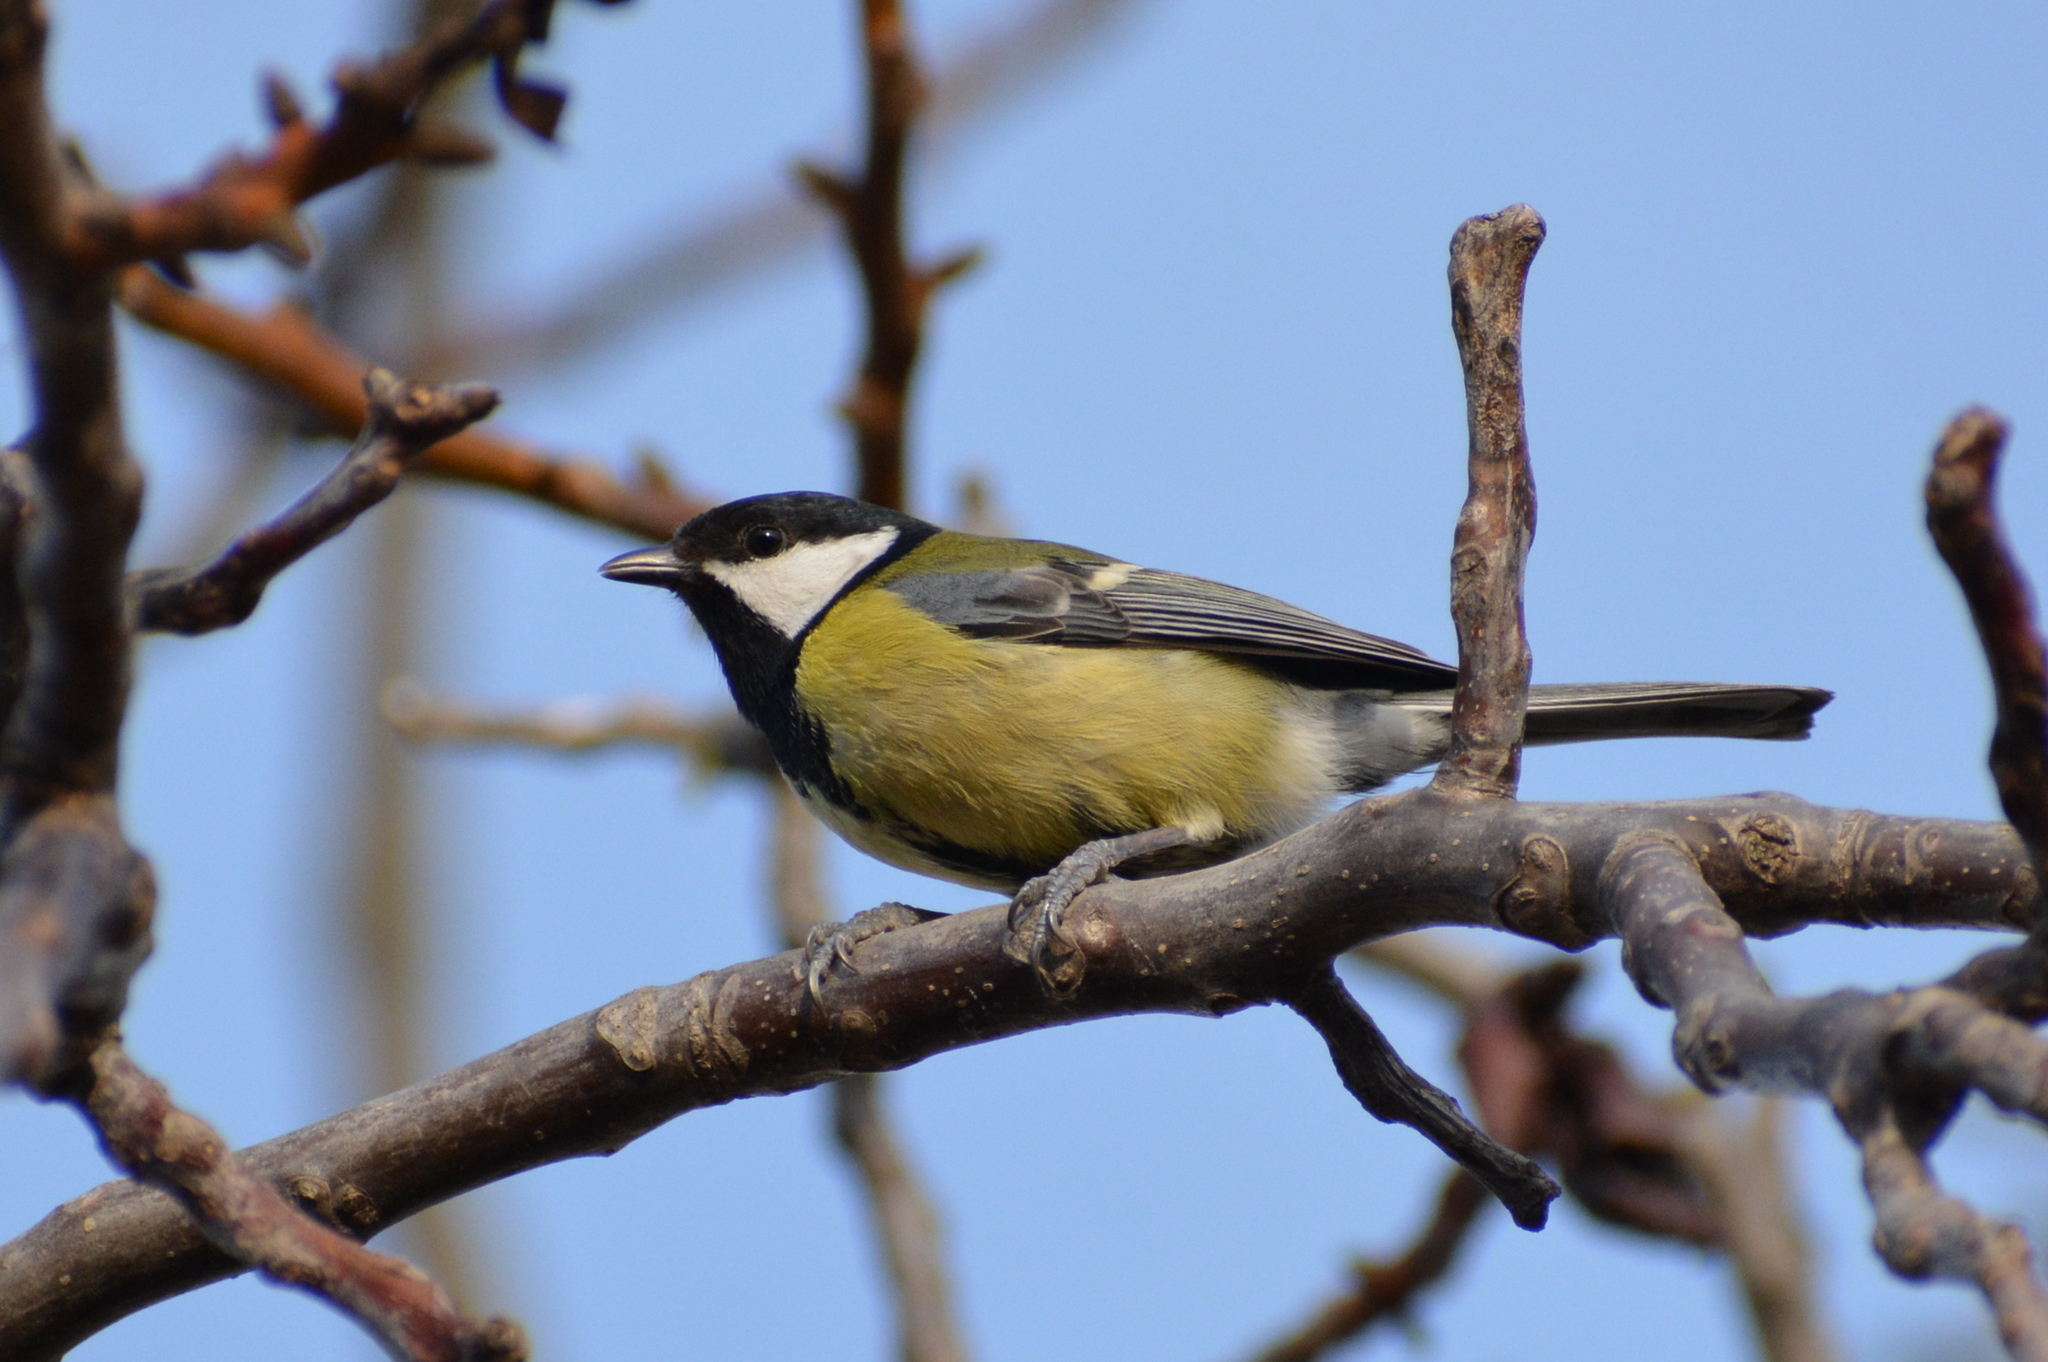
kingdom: Animalia
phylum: Chordata
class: Aves
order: Passeriformes
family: Paridae
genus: Parus
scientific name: Parus major
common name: Great tit
